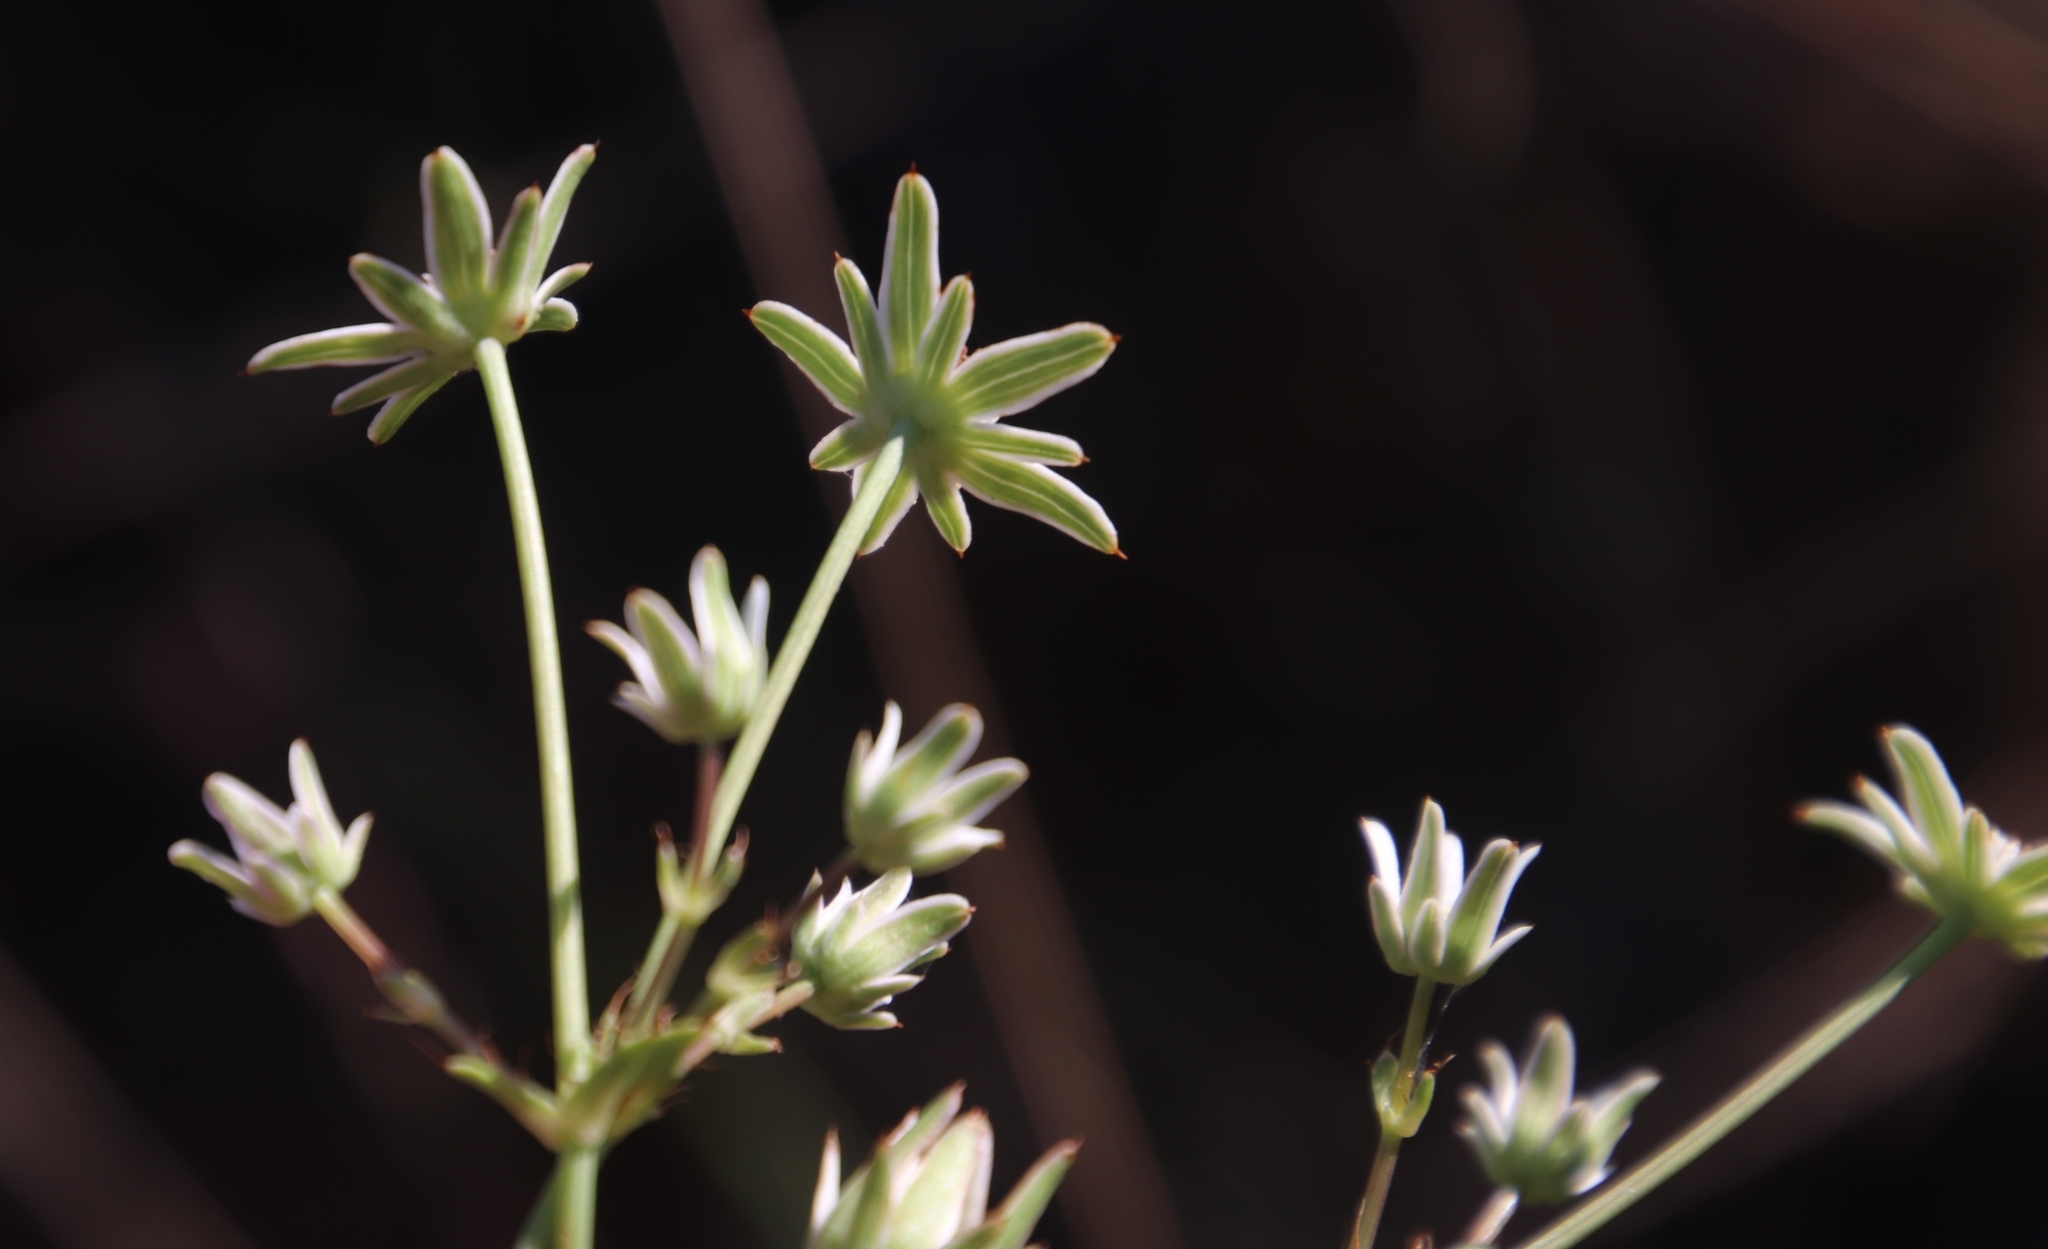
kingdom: Plantae
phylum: Tracheophyta
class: Magnoliopsida
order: Apiales
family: Apiaceae
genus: Alepidea
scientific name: Alepidea peduncularis
